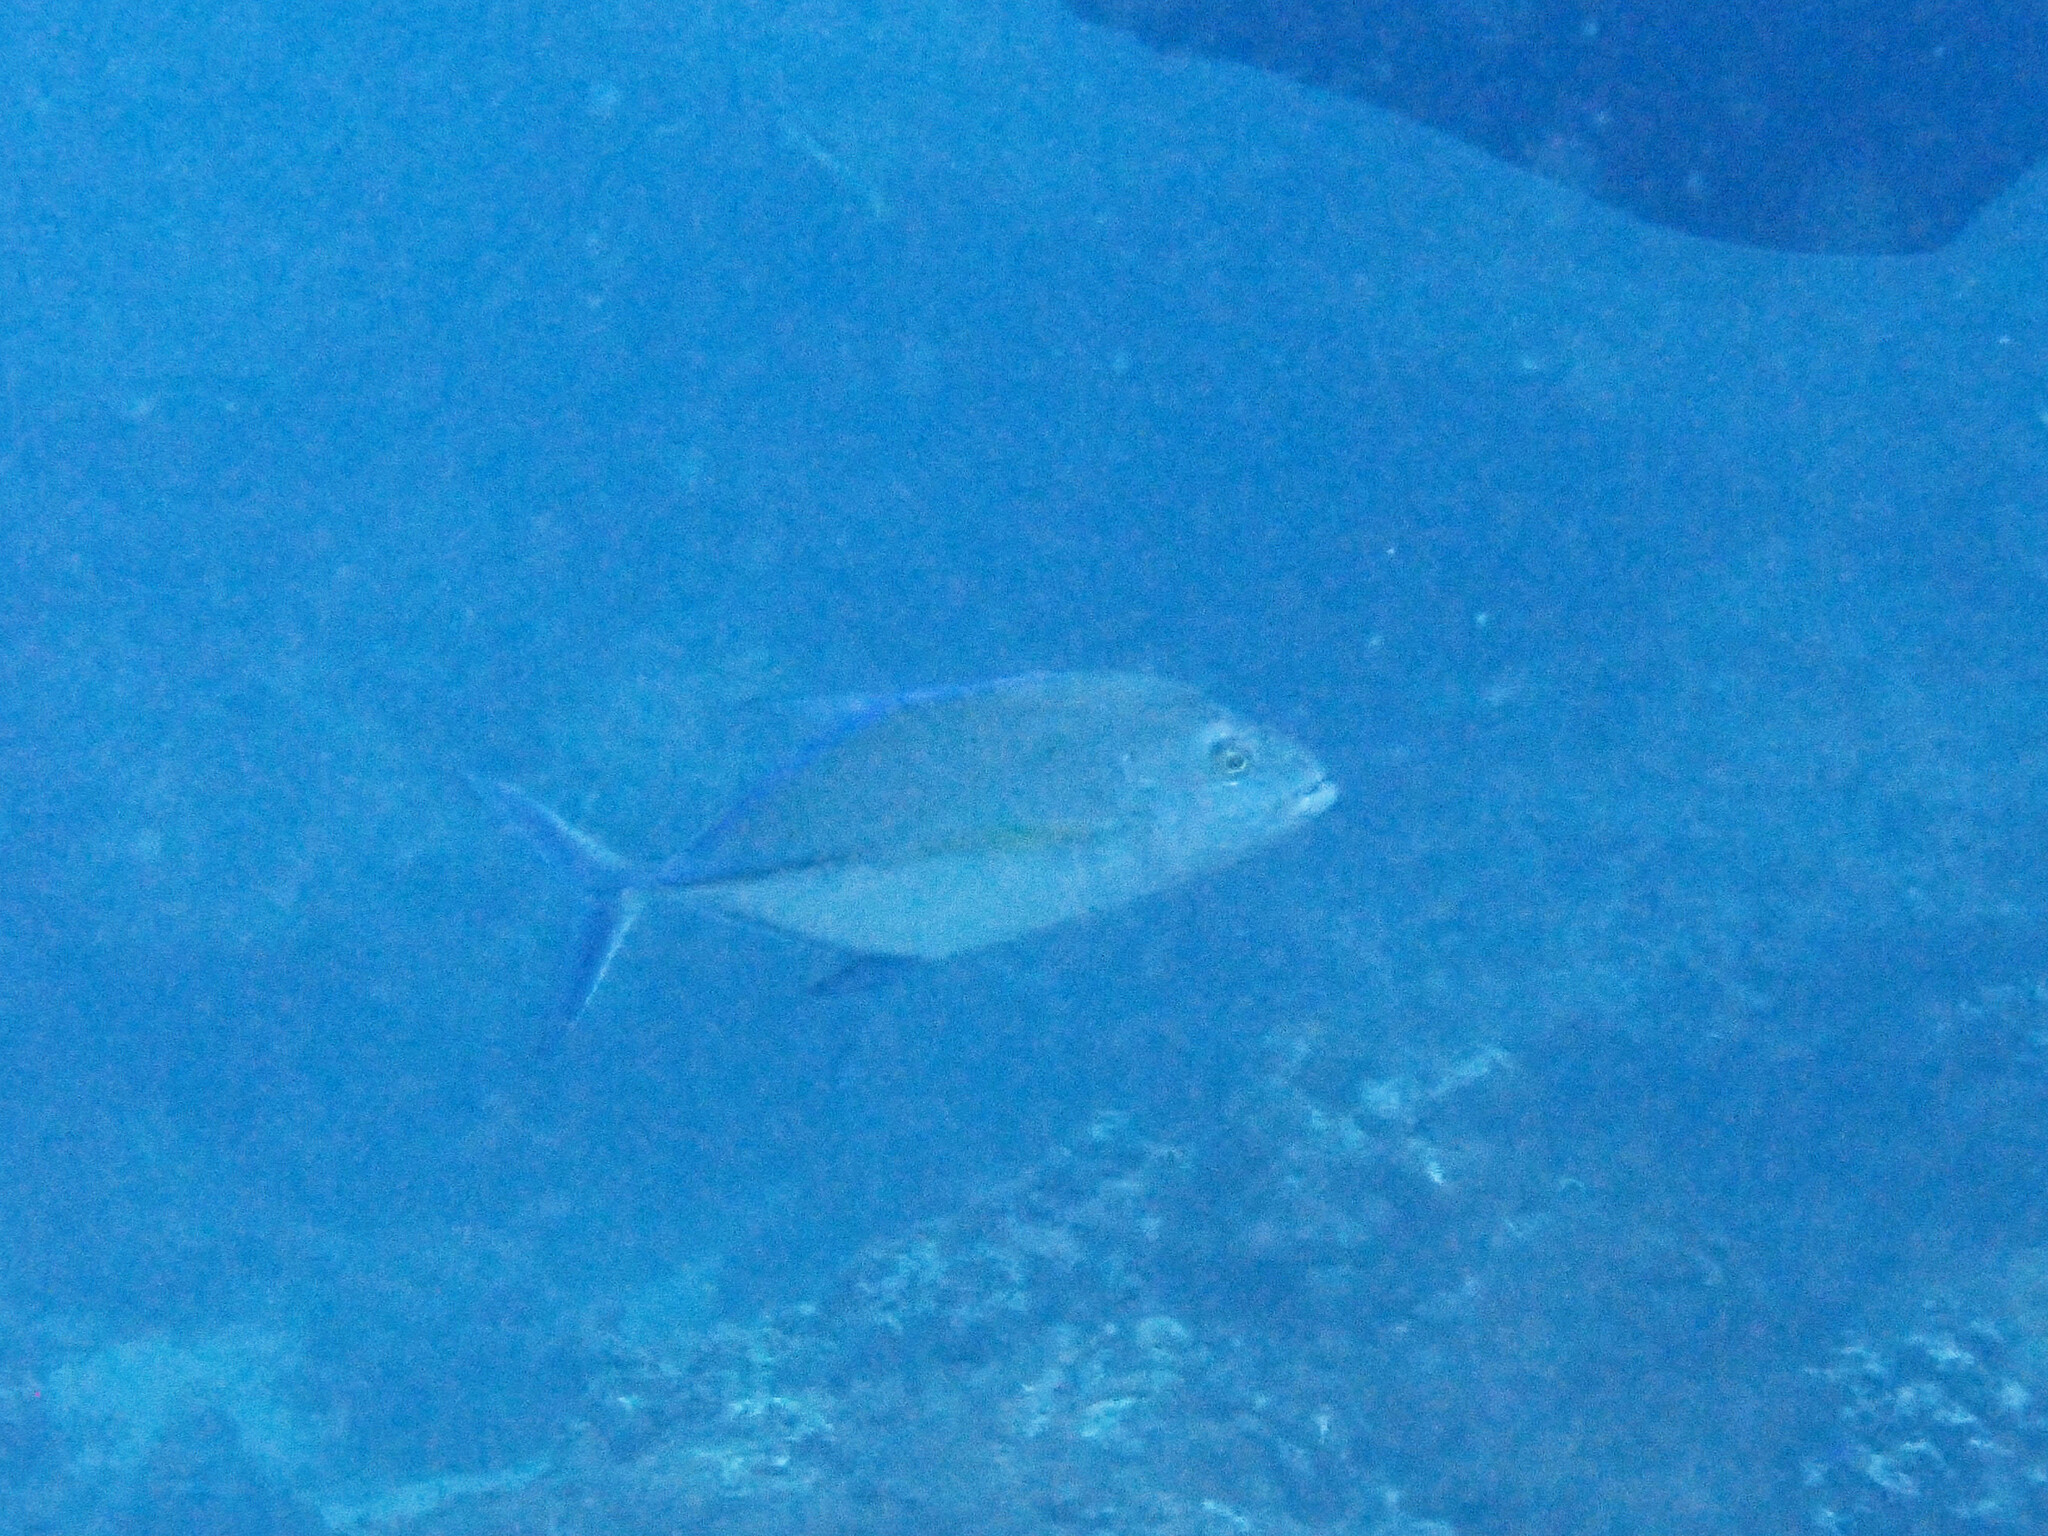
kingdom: Animalia
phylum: Chordata
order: Perciformes
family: Carangidae
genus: Caranx
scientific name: Caranx melampygus
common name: Bluefin trevally
